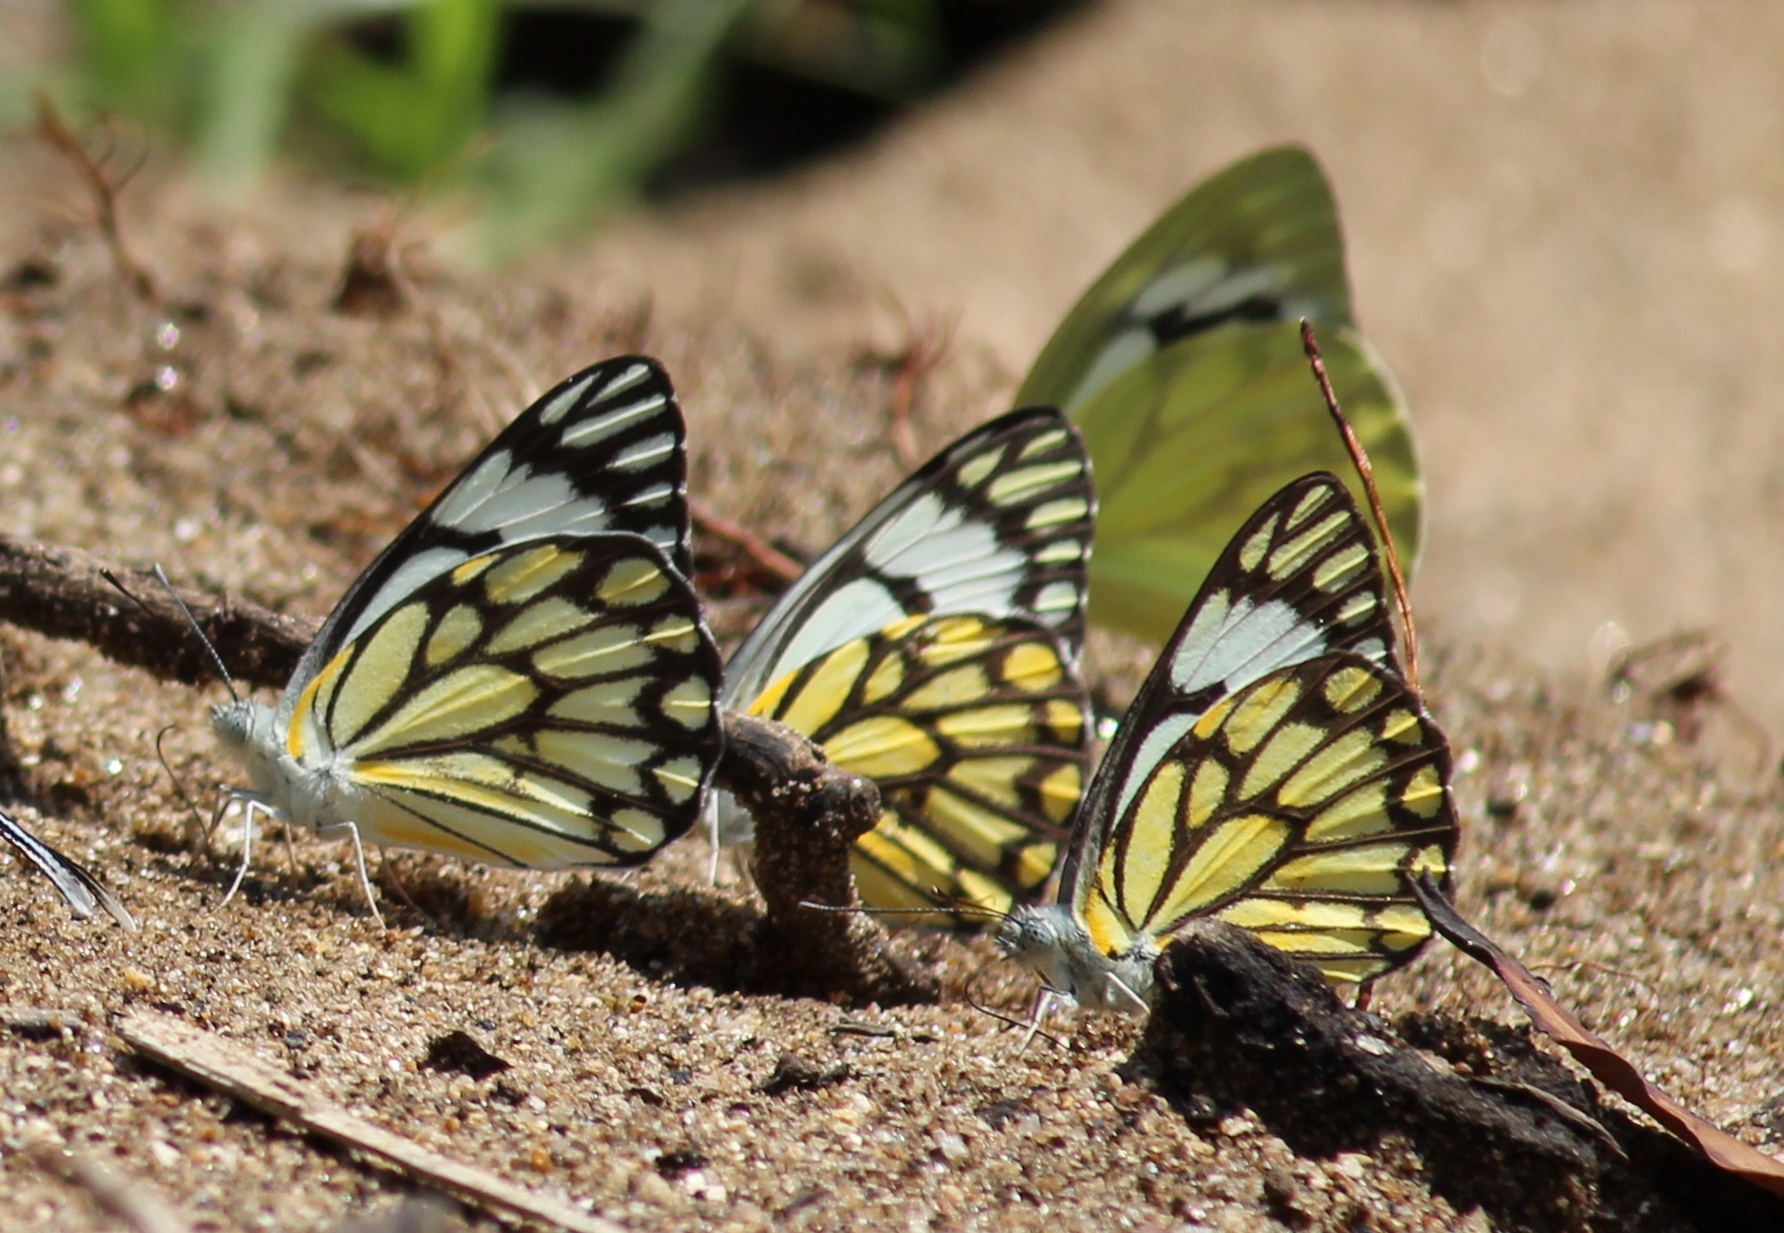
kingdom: Animalia
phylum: Arthropoda
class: Insecta
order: Lepidoptera
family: Pieridae
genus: Belenois
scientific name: Belenois aurota
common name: Brown-veined white
